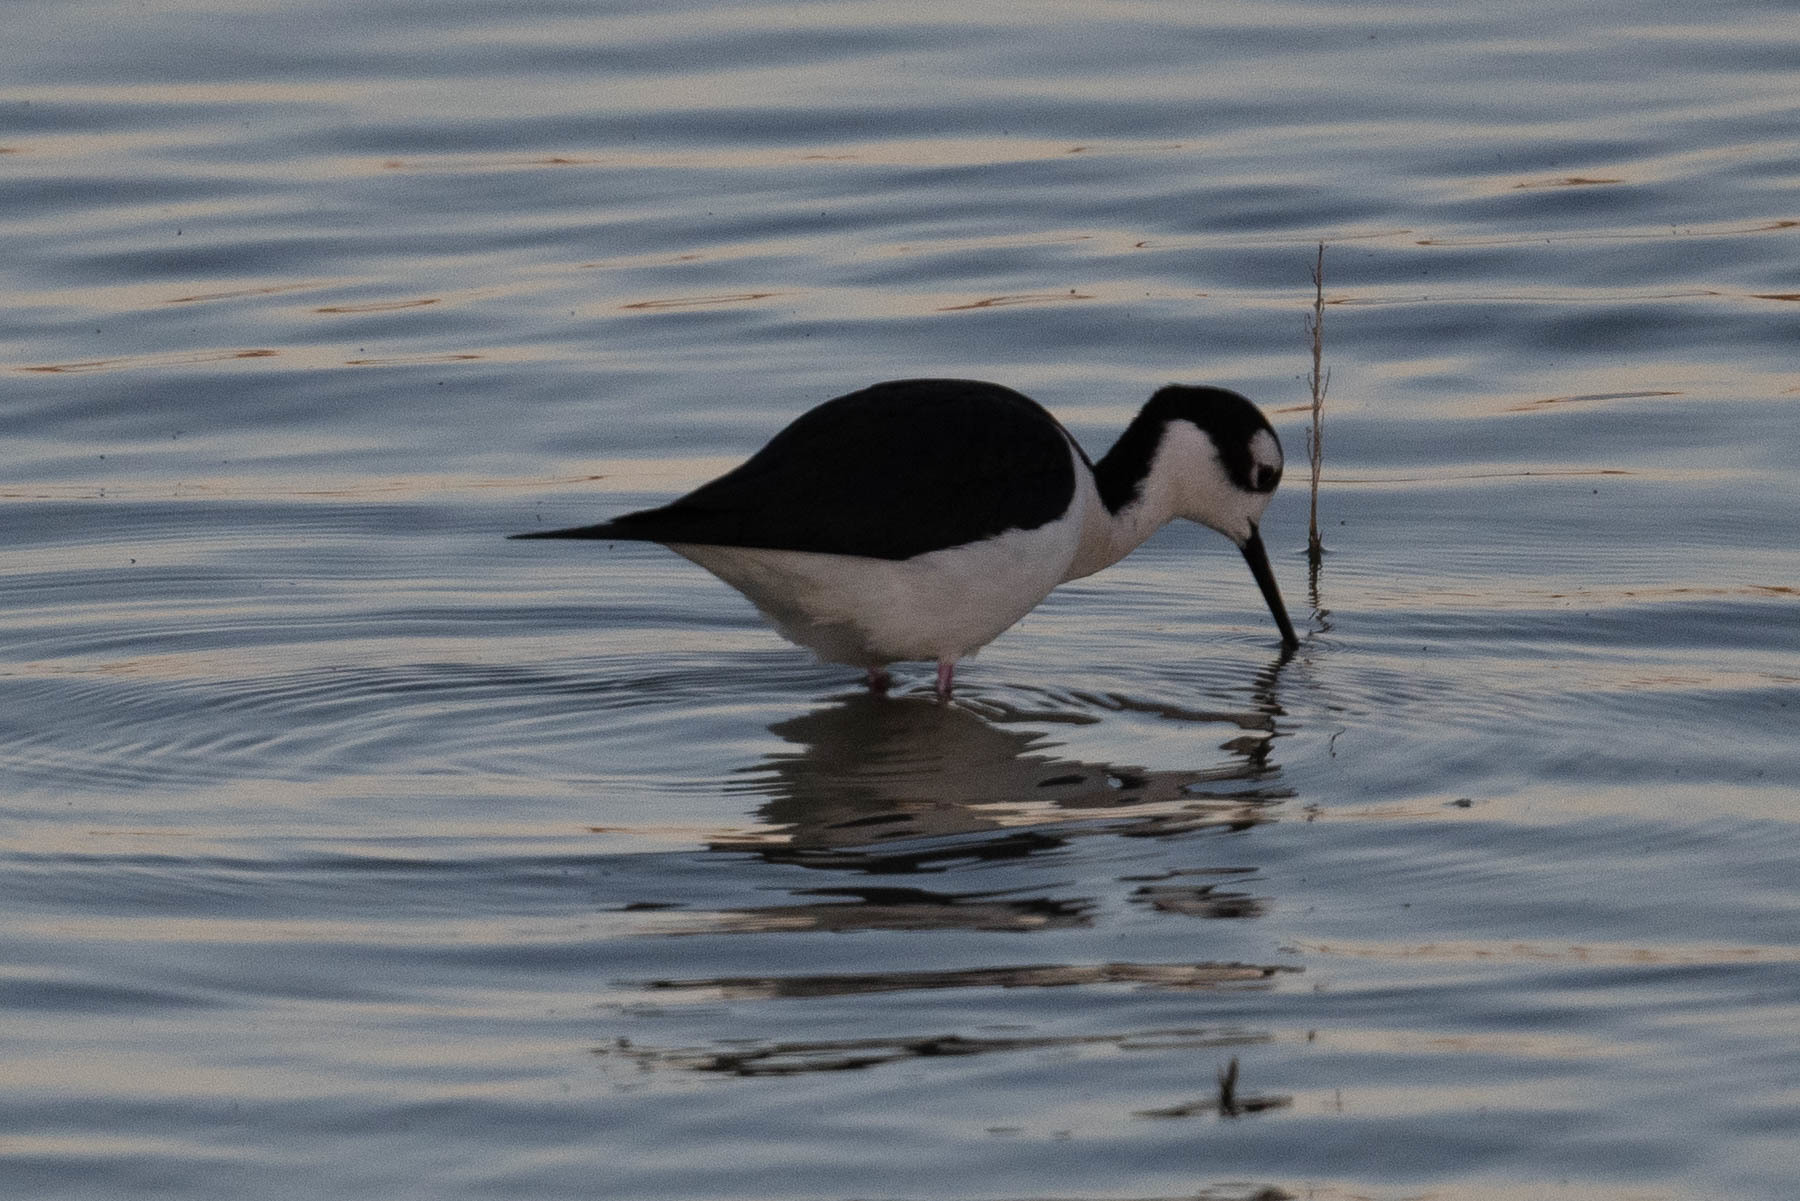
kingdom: Animalia
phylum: Chordata
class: Aves
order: Charadriiformes
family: Recurvirostridae
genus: Himantopus
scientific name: Himantopus mexicanus
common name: Black-necked stilt
